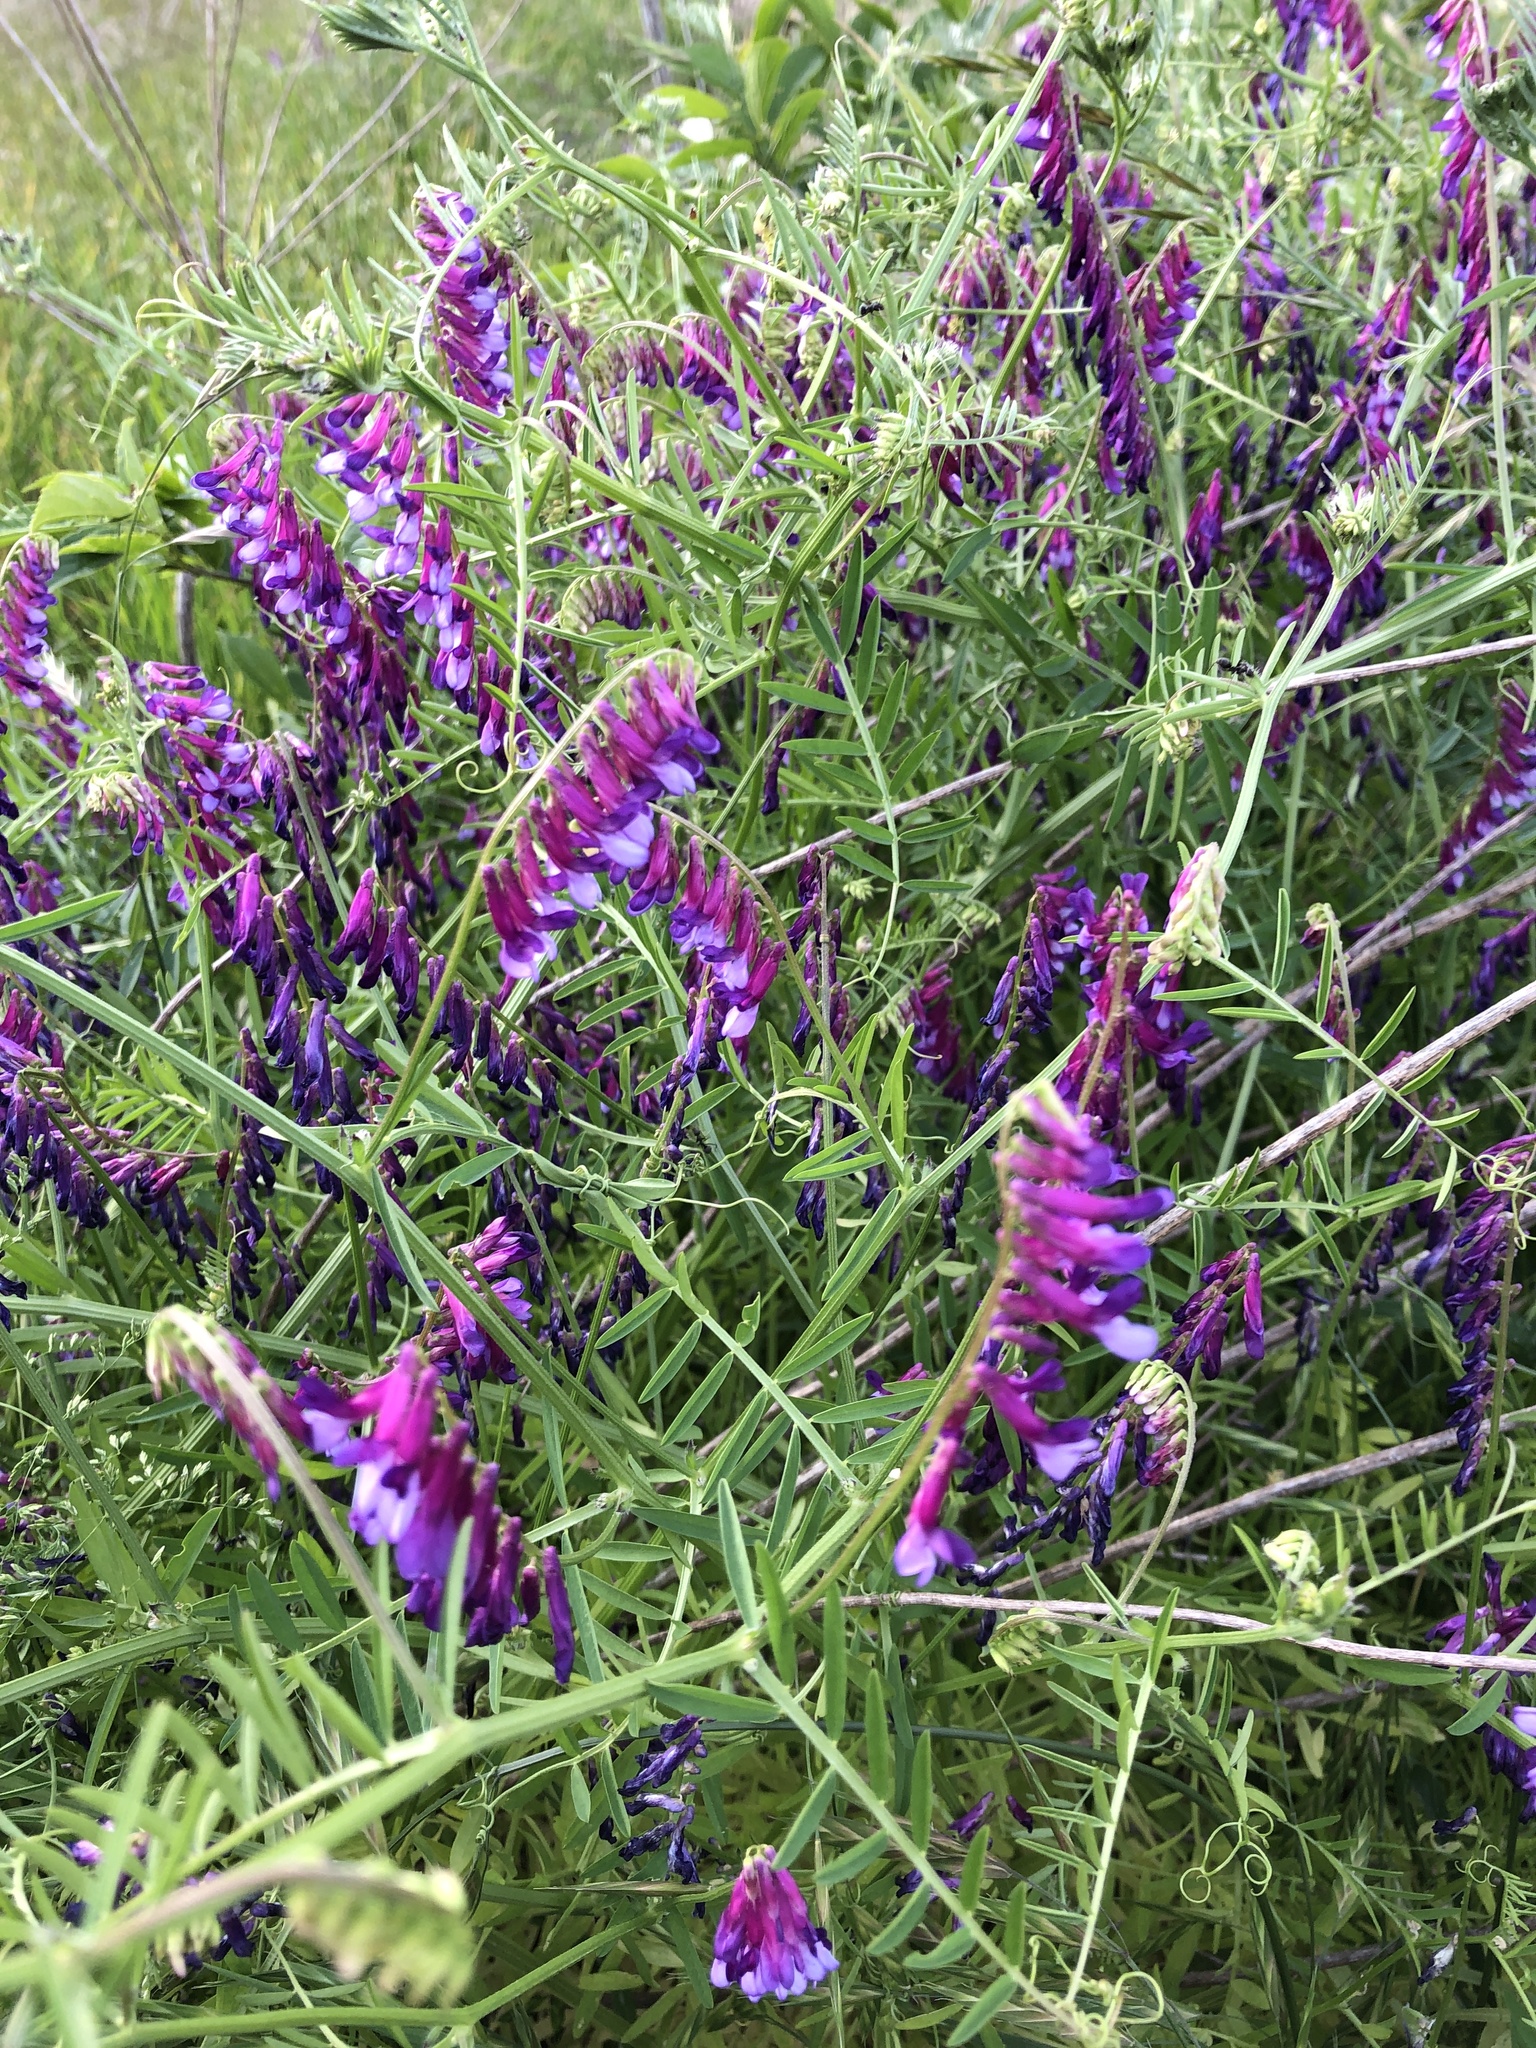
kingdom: Plantae
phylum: Tracheophyta
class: Magnoliopsida
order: Fabales
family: Fabaceae
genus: Vicia
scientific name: Vicia villosa
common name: Fodder vetch
